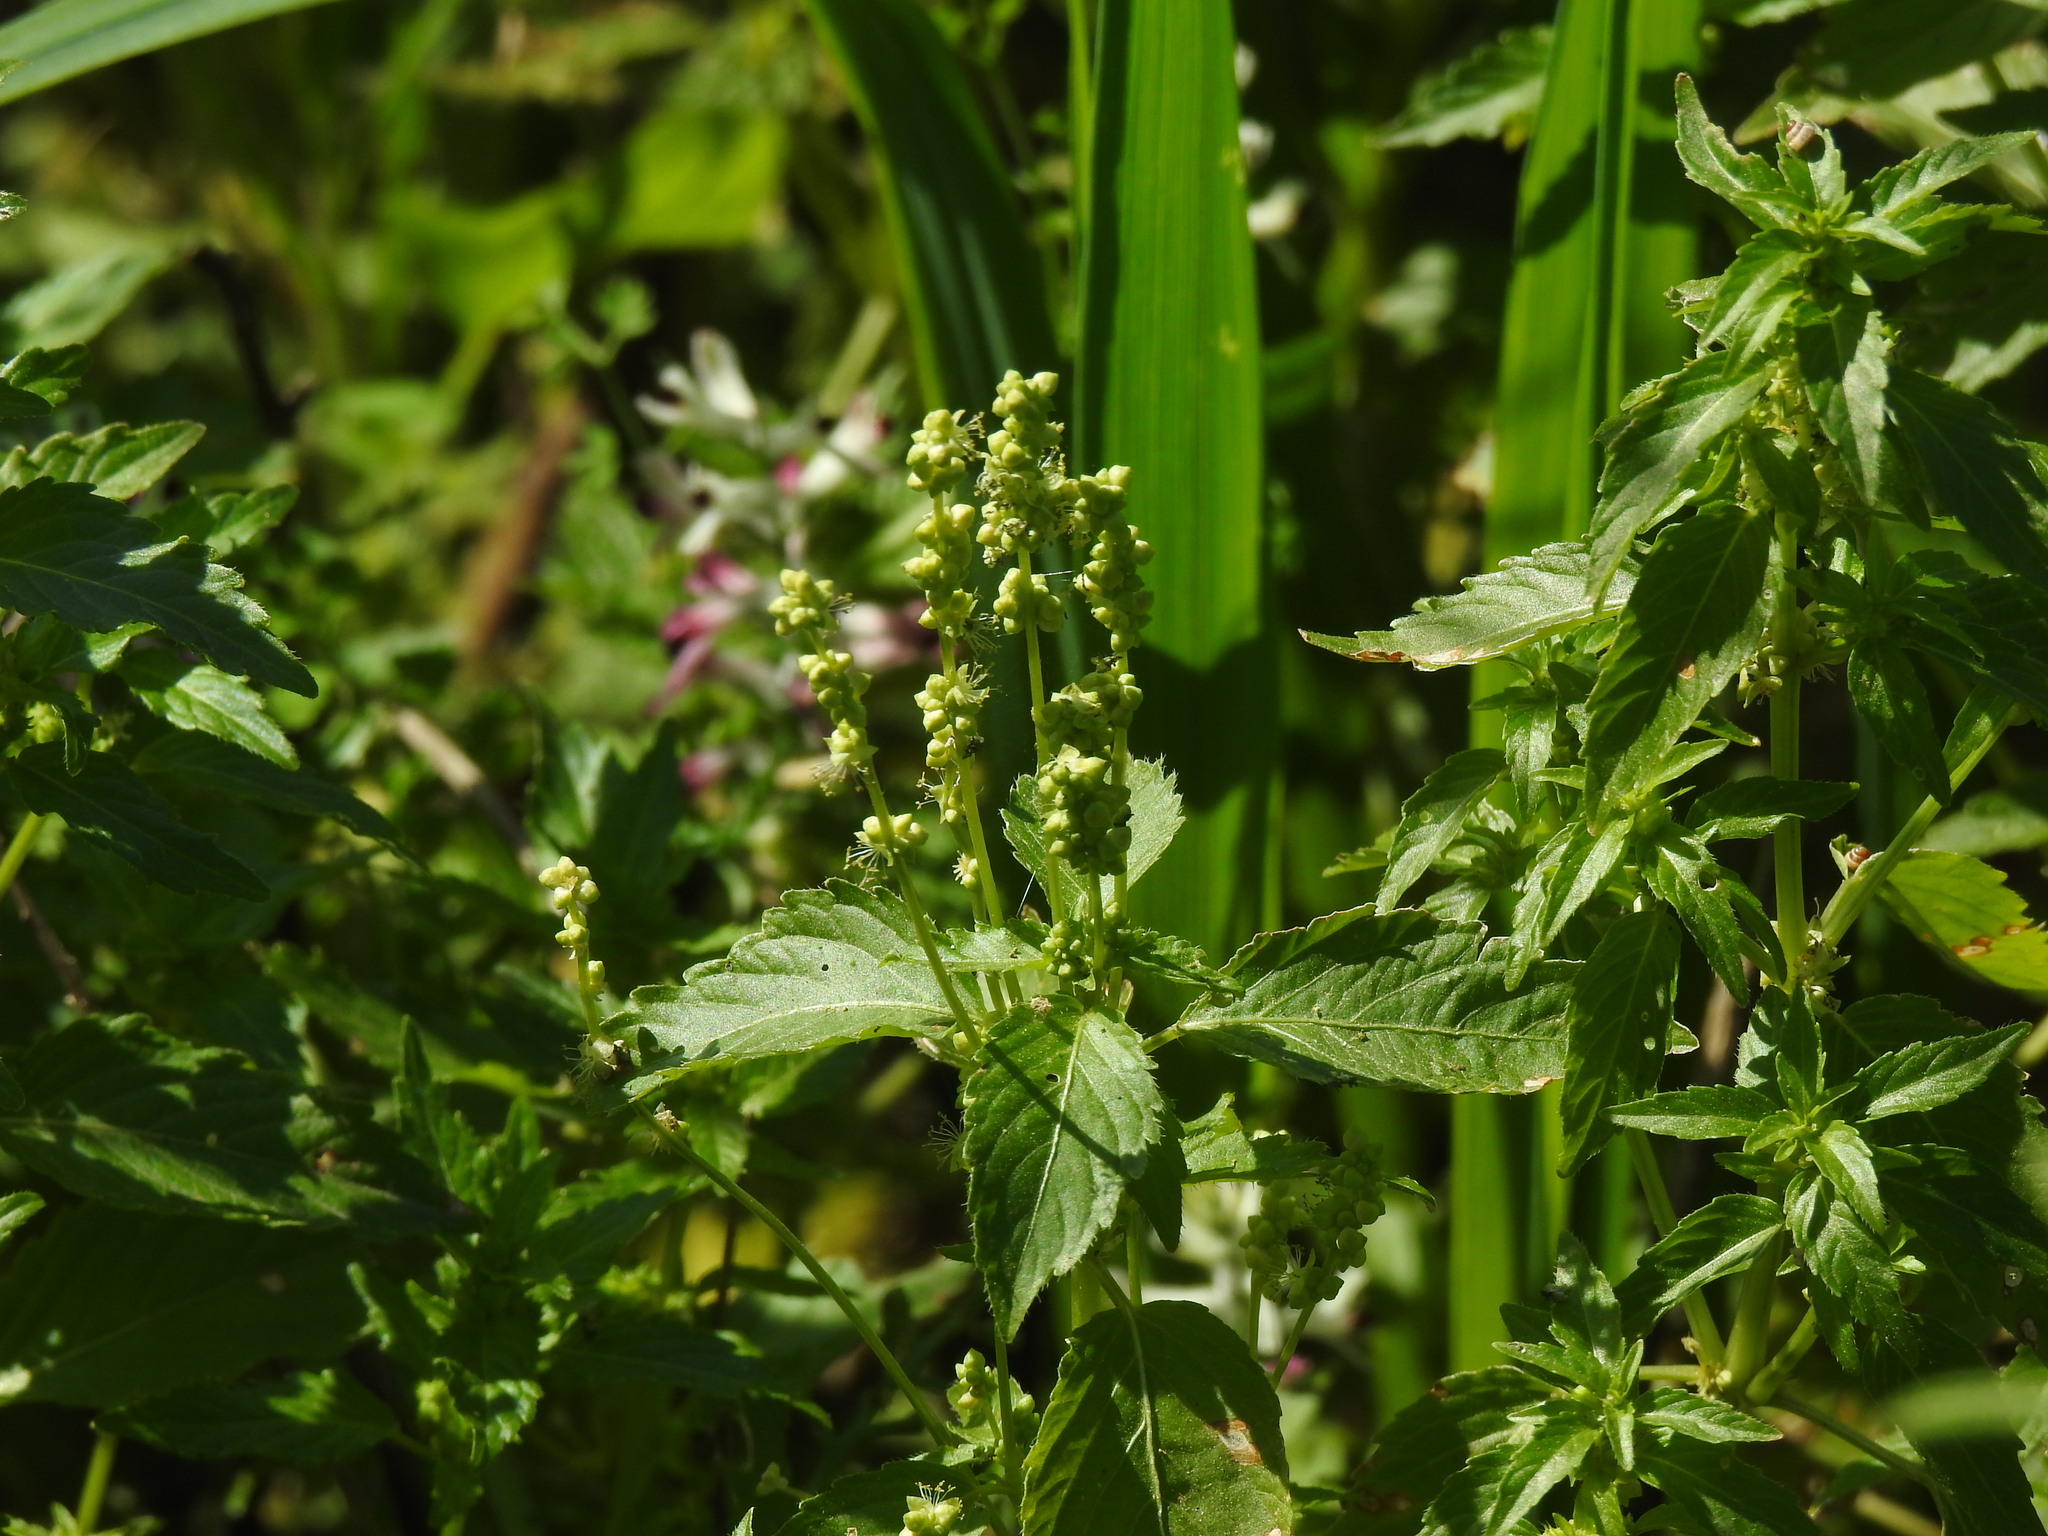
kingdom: Plantae
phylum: Tracheophyta
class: Magnoliopsida
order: Malpighiales
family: Euphorbiaceae
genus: Mercurialis
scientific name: Mercurialis annua
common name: Annual mercury
